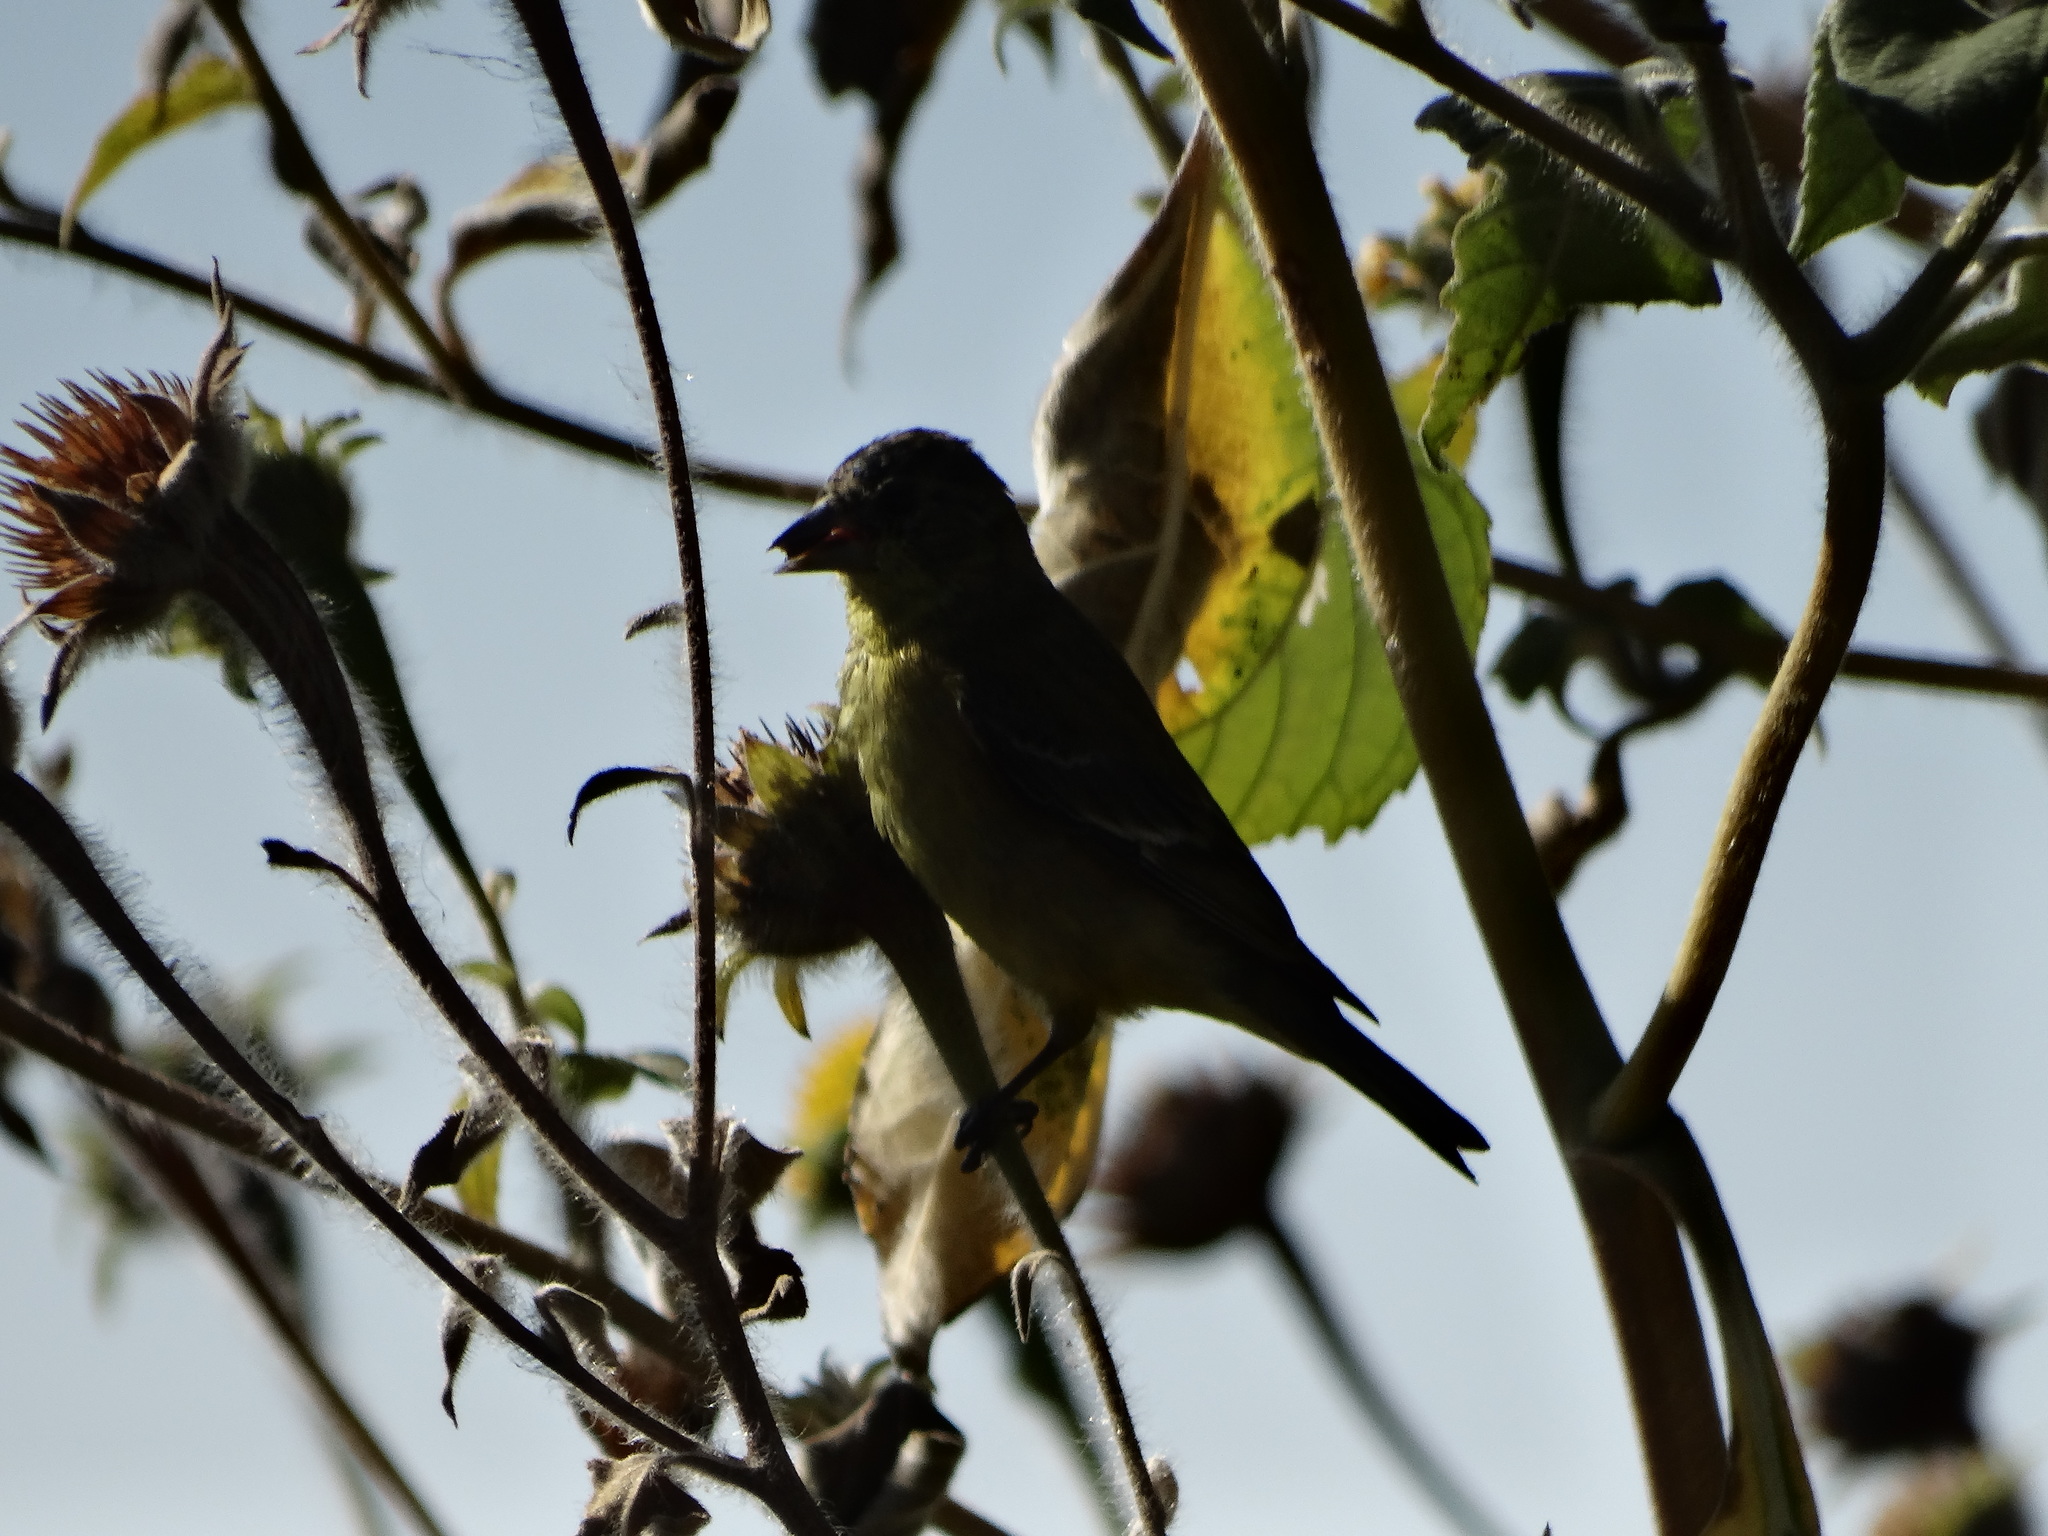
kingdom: Animalia
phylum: Chordata
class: Aves
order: Passeriformes
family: Fringillidae
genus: Spinus
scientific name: Spinus psaltria
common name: Lesser goldfinch
